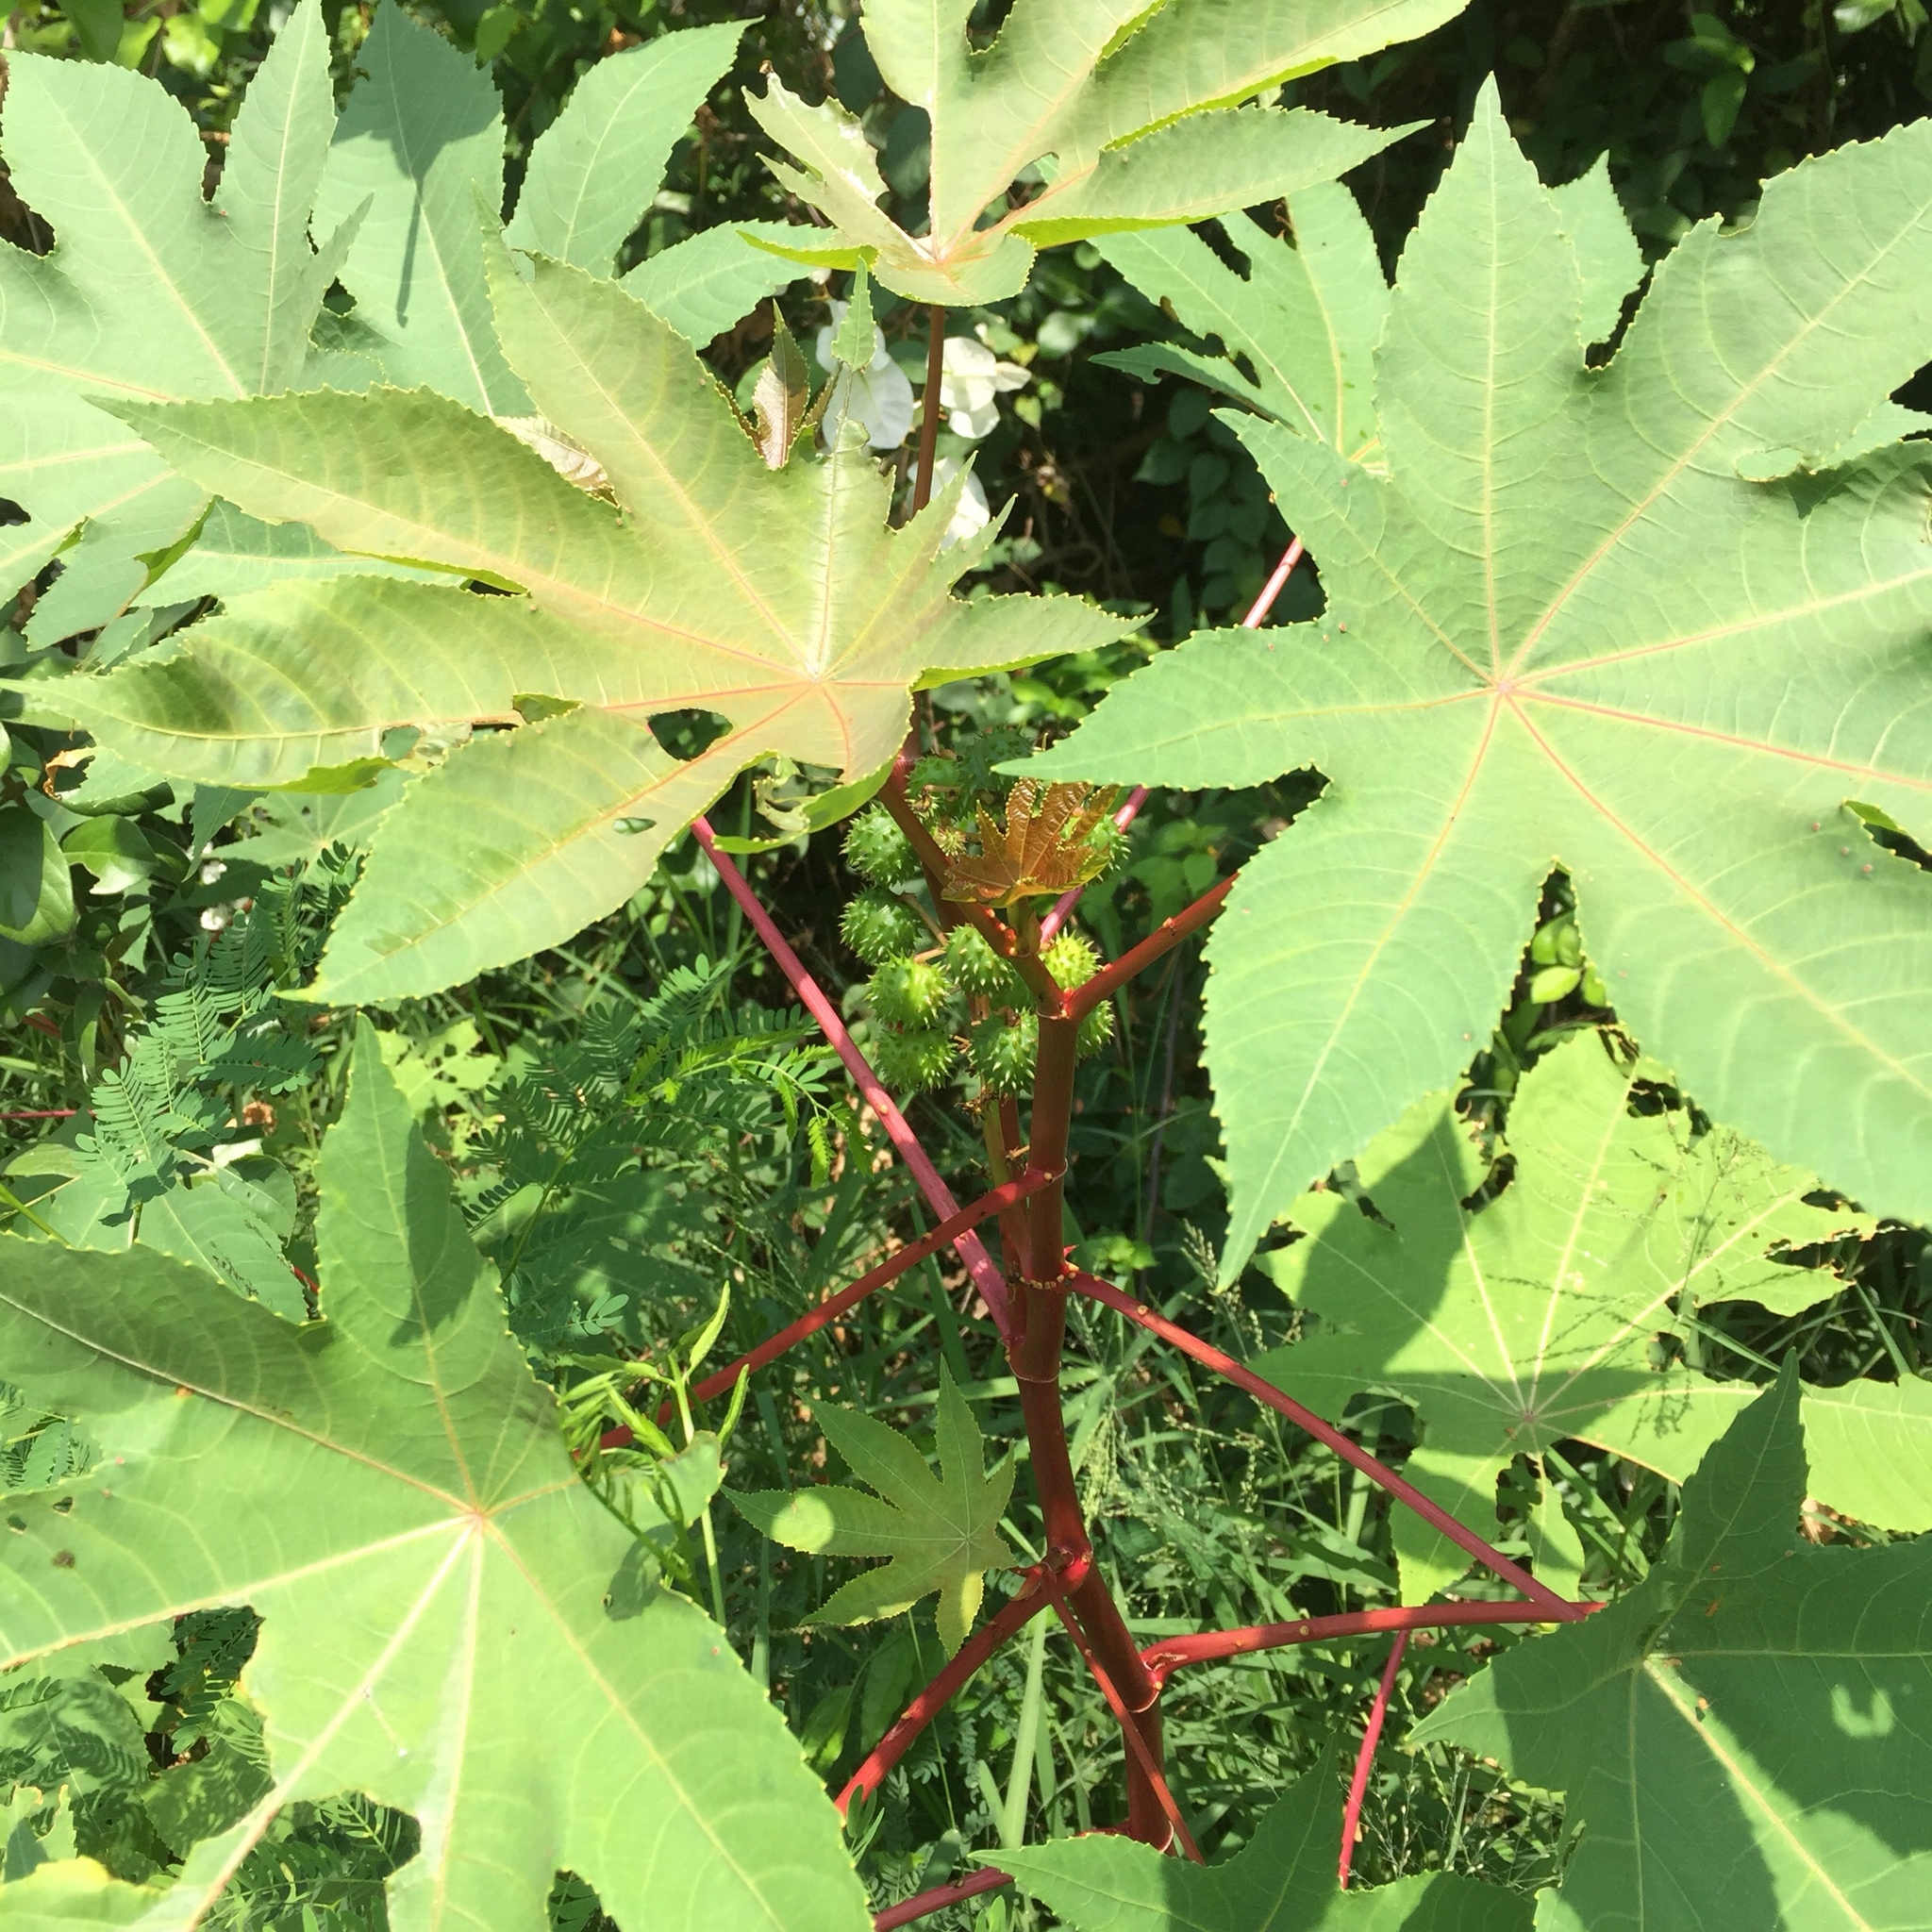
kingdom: Plantae
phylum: Tracheophyta
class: Magnoliopsida
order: Malpighiales
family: Euphorbiaceae
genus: Ricinus
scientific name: Ricinus communis
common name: Castor-oil-plant
